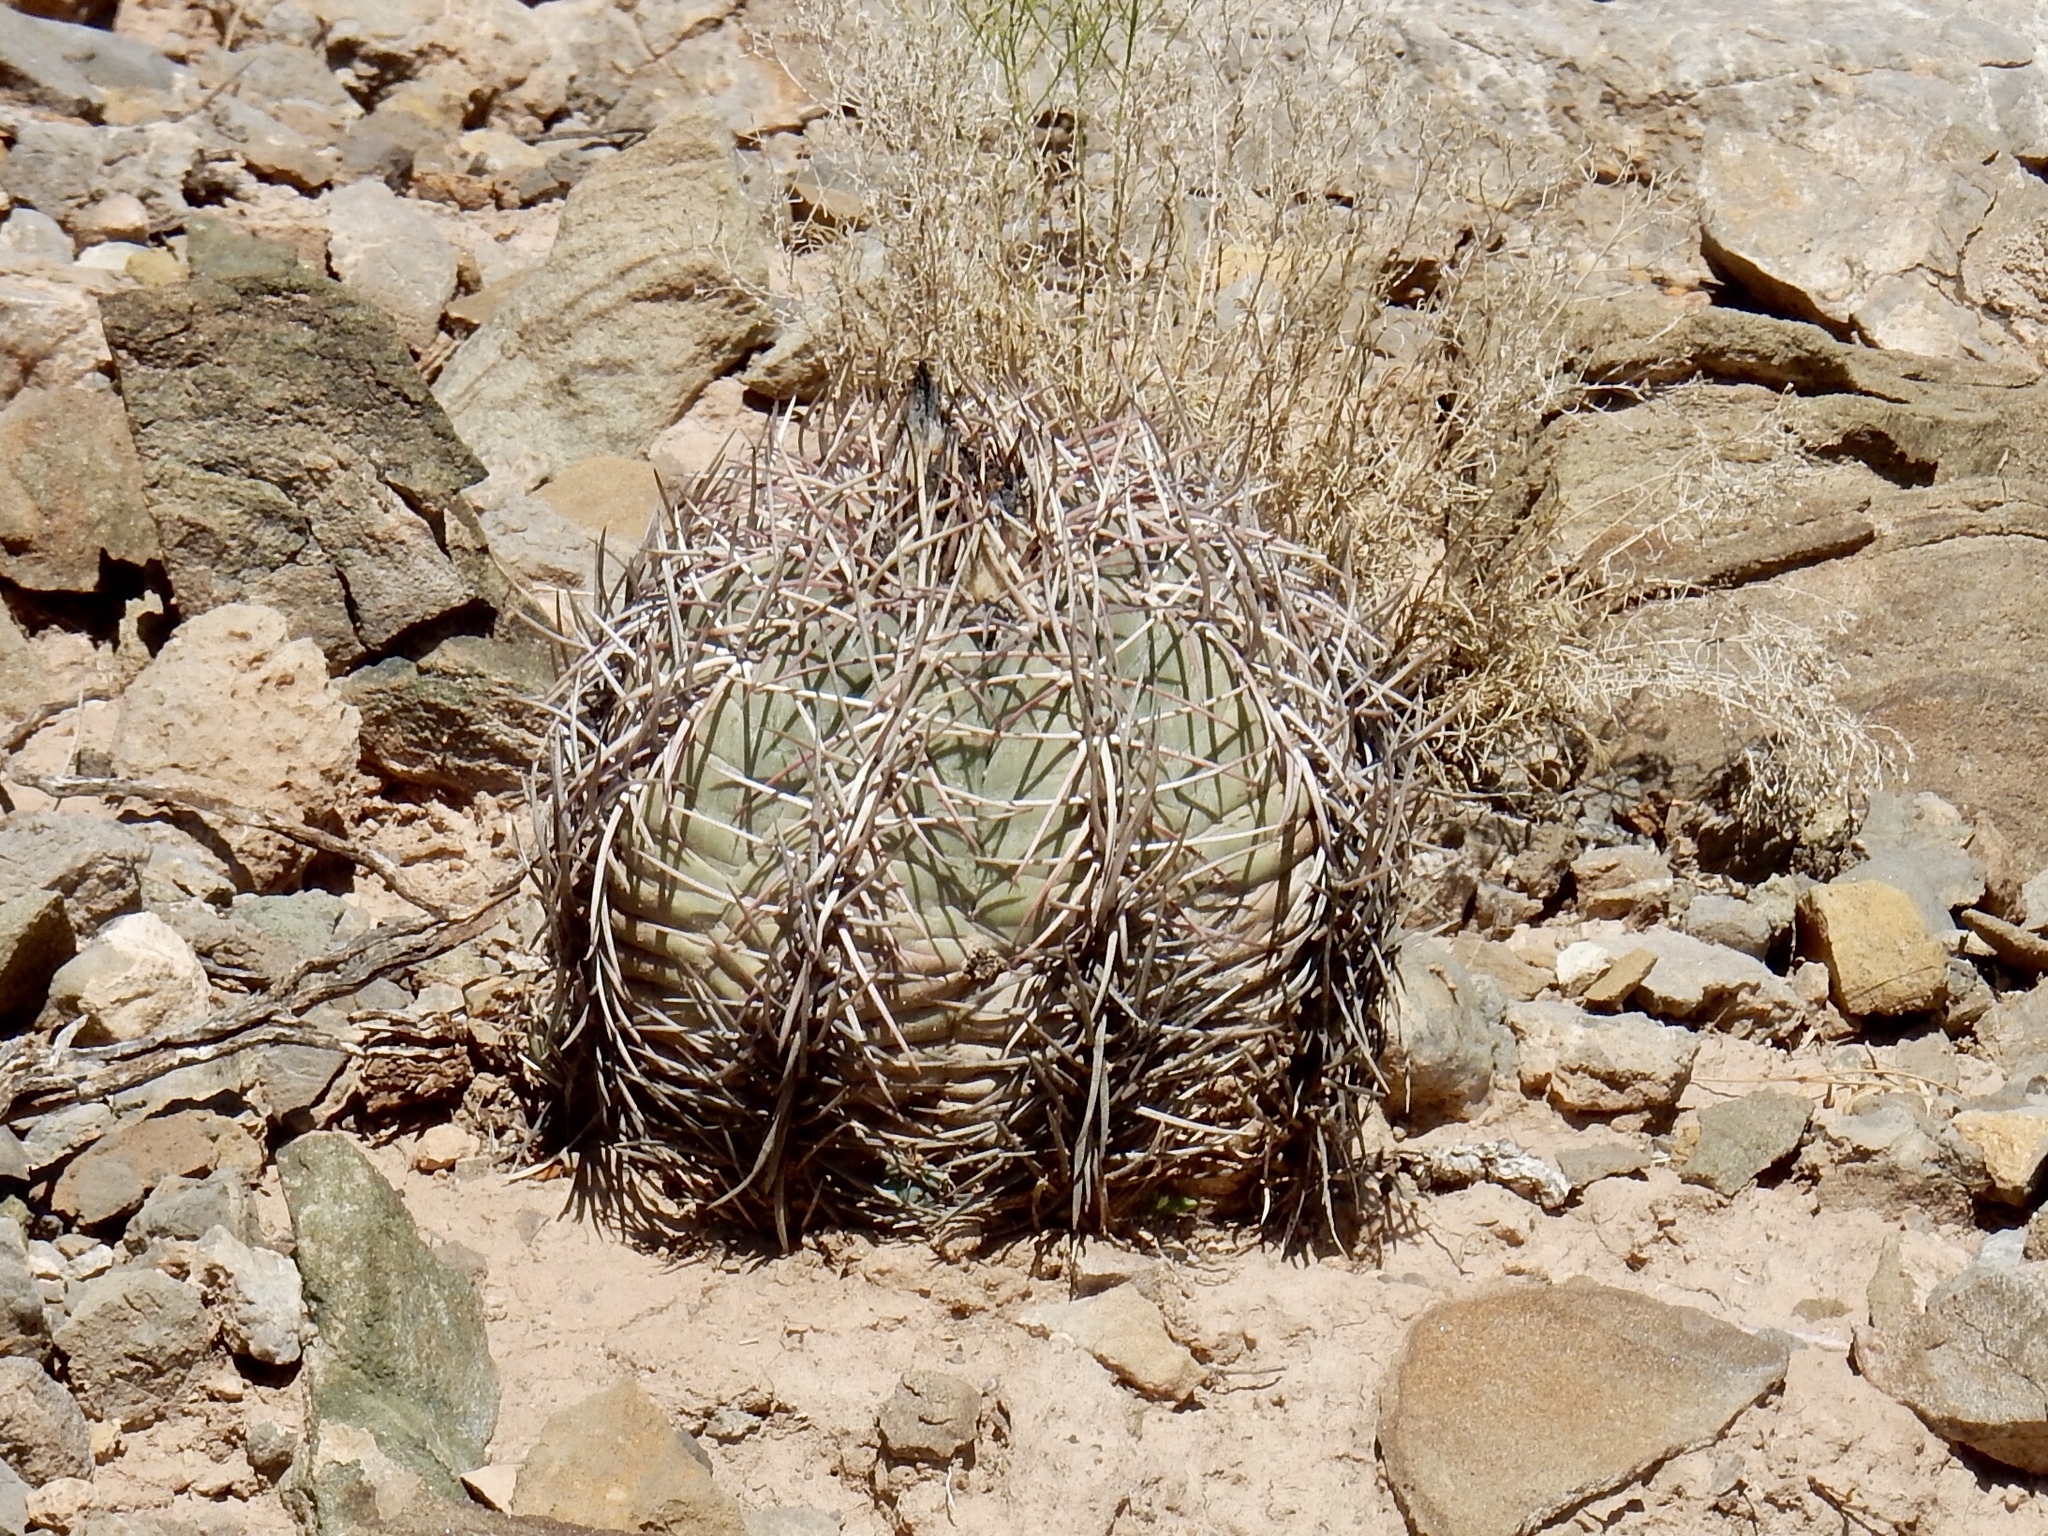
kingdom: Plantae
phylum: Tracheophyta
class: Magnoliopsida
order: Caryophyllales
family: Cactaceae
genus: Echinocactus
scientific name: Echinocactus horizonthalonius
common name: Devilshead
